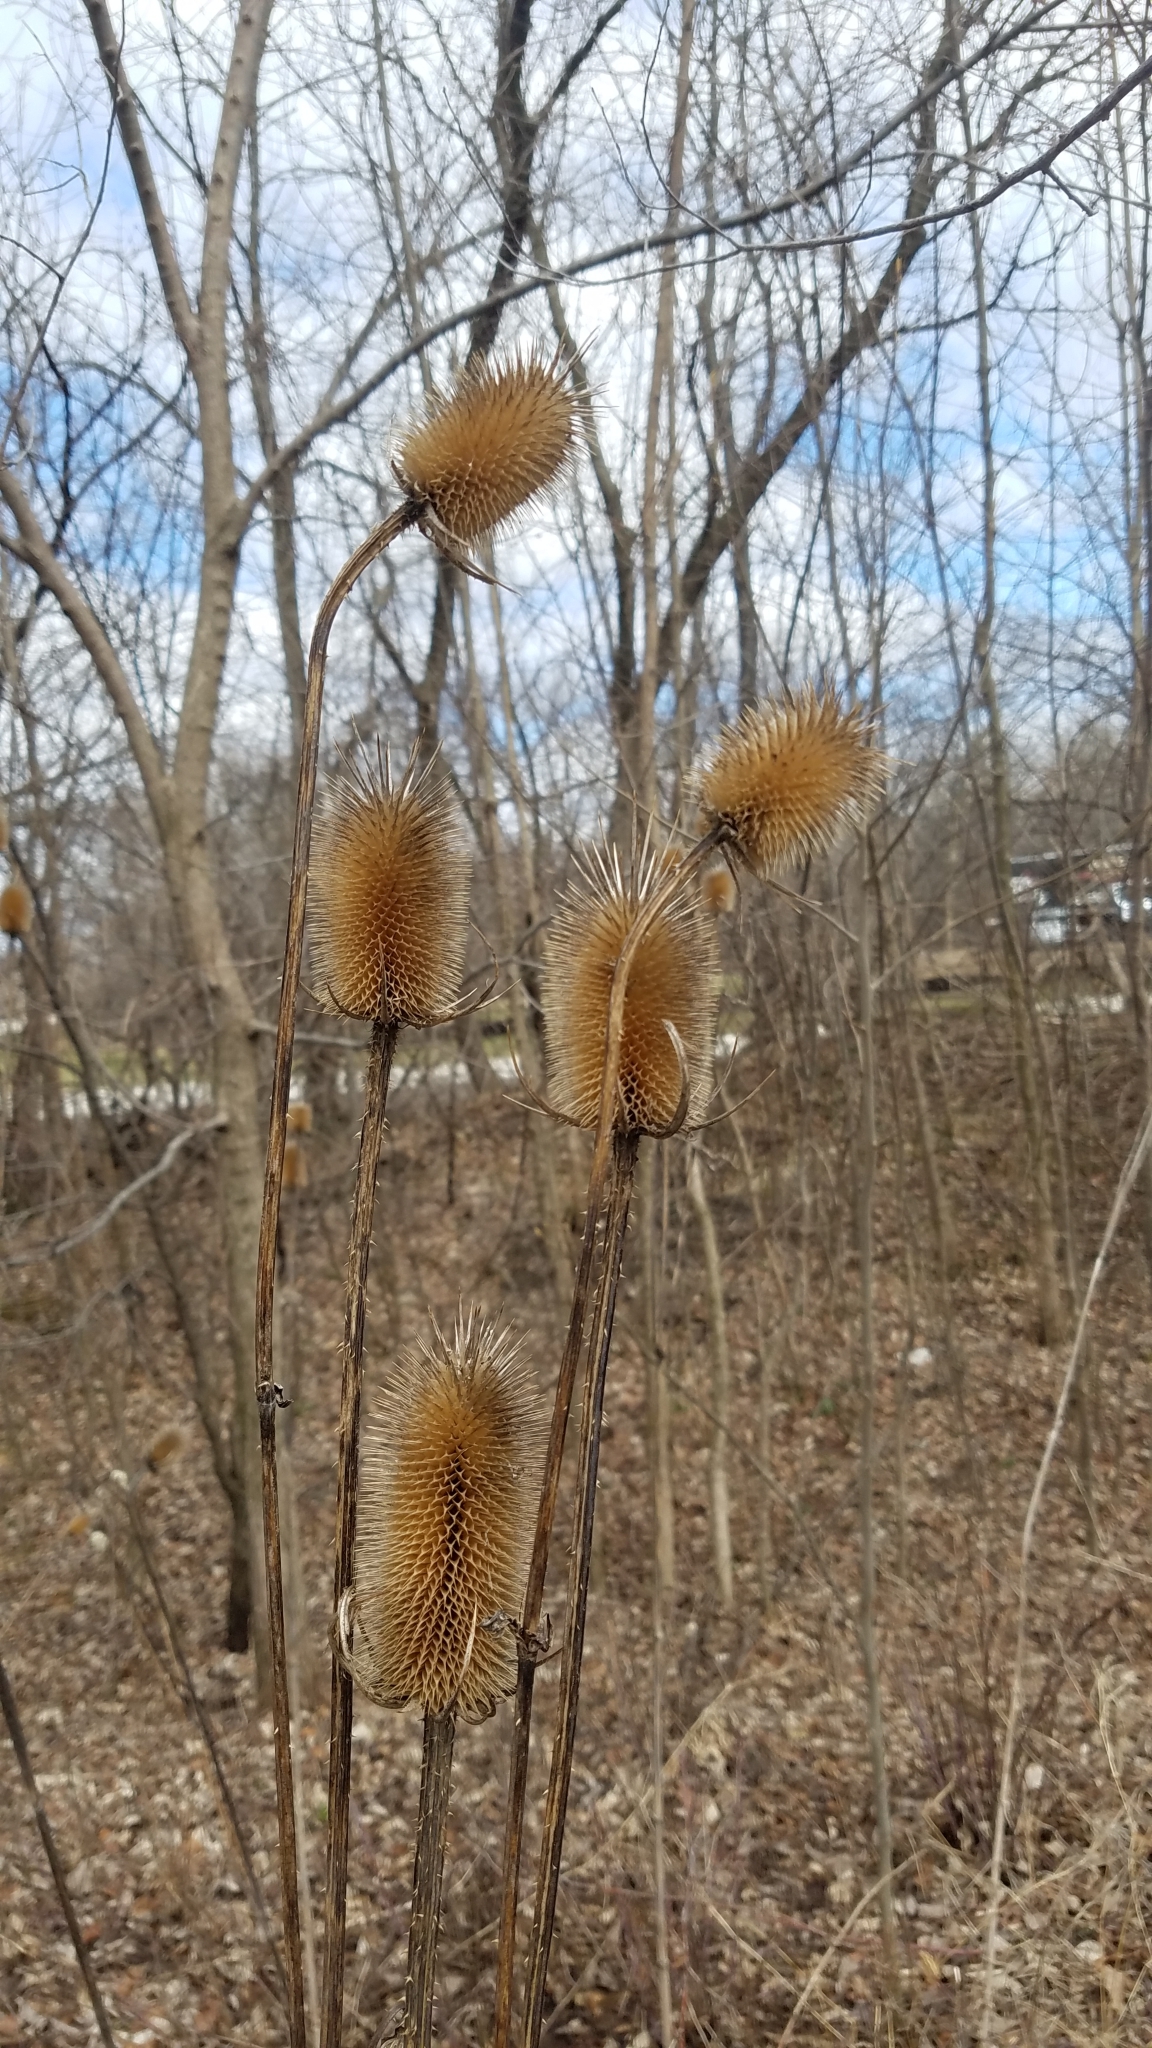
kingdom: Plantae
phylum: Tracheophyta
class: Magnoliopsida
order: Dipsacales
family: Caprifoliaceae
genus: Dipsacus
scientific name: Dipsacus laciniatus
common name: Cut-leaved teasel
